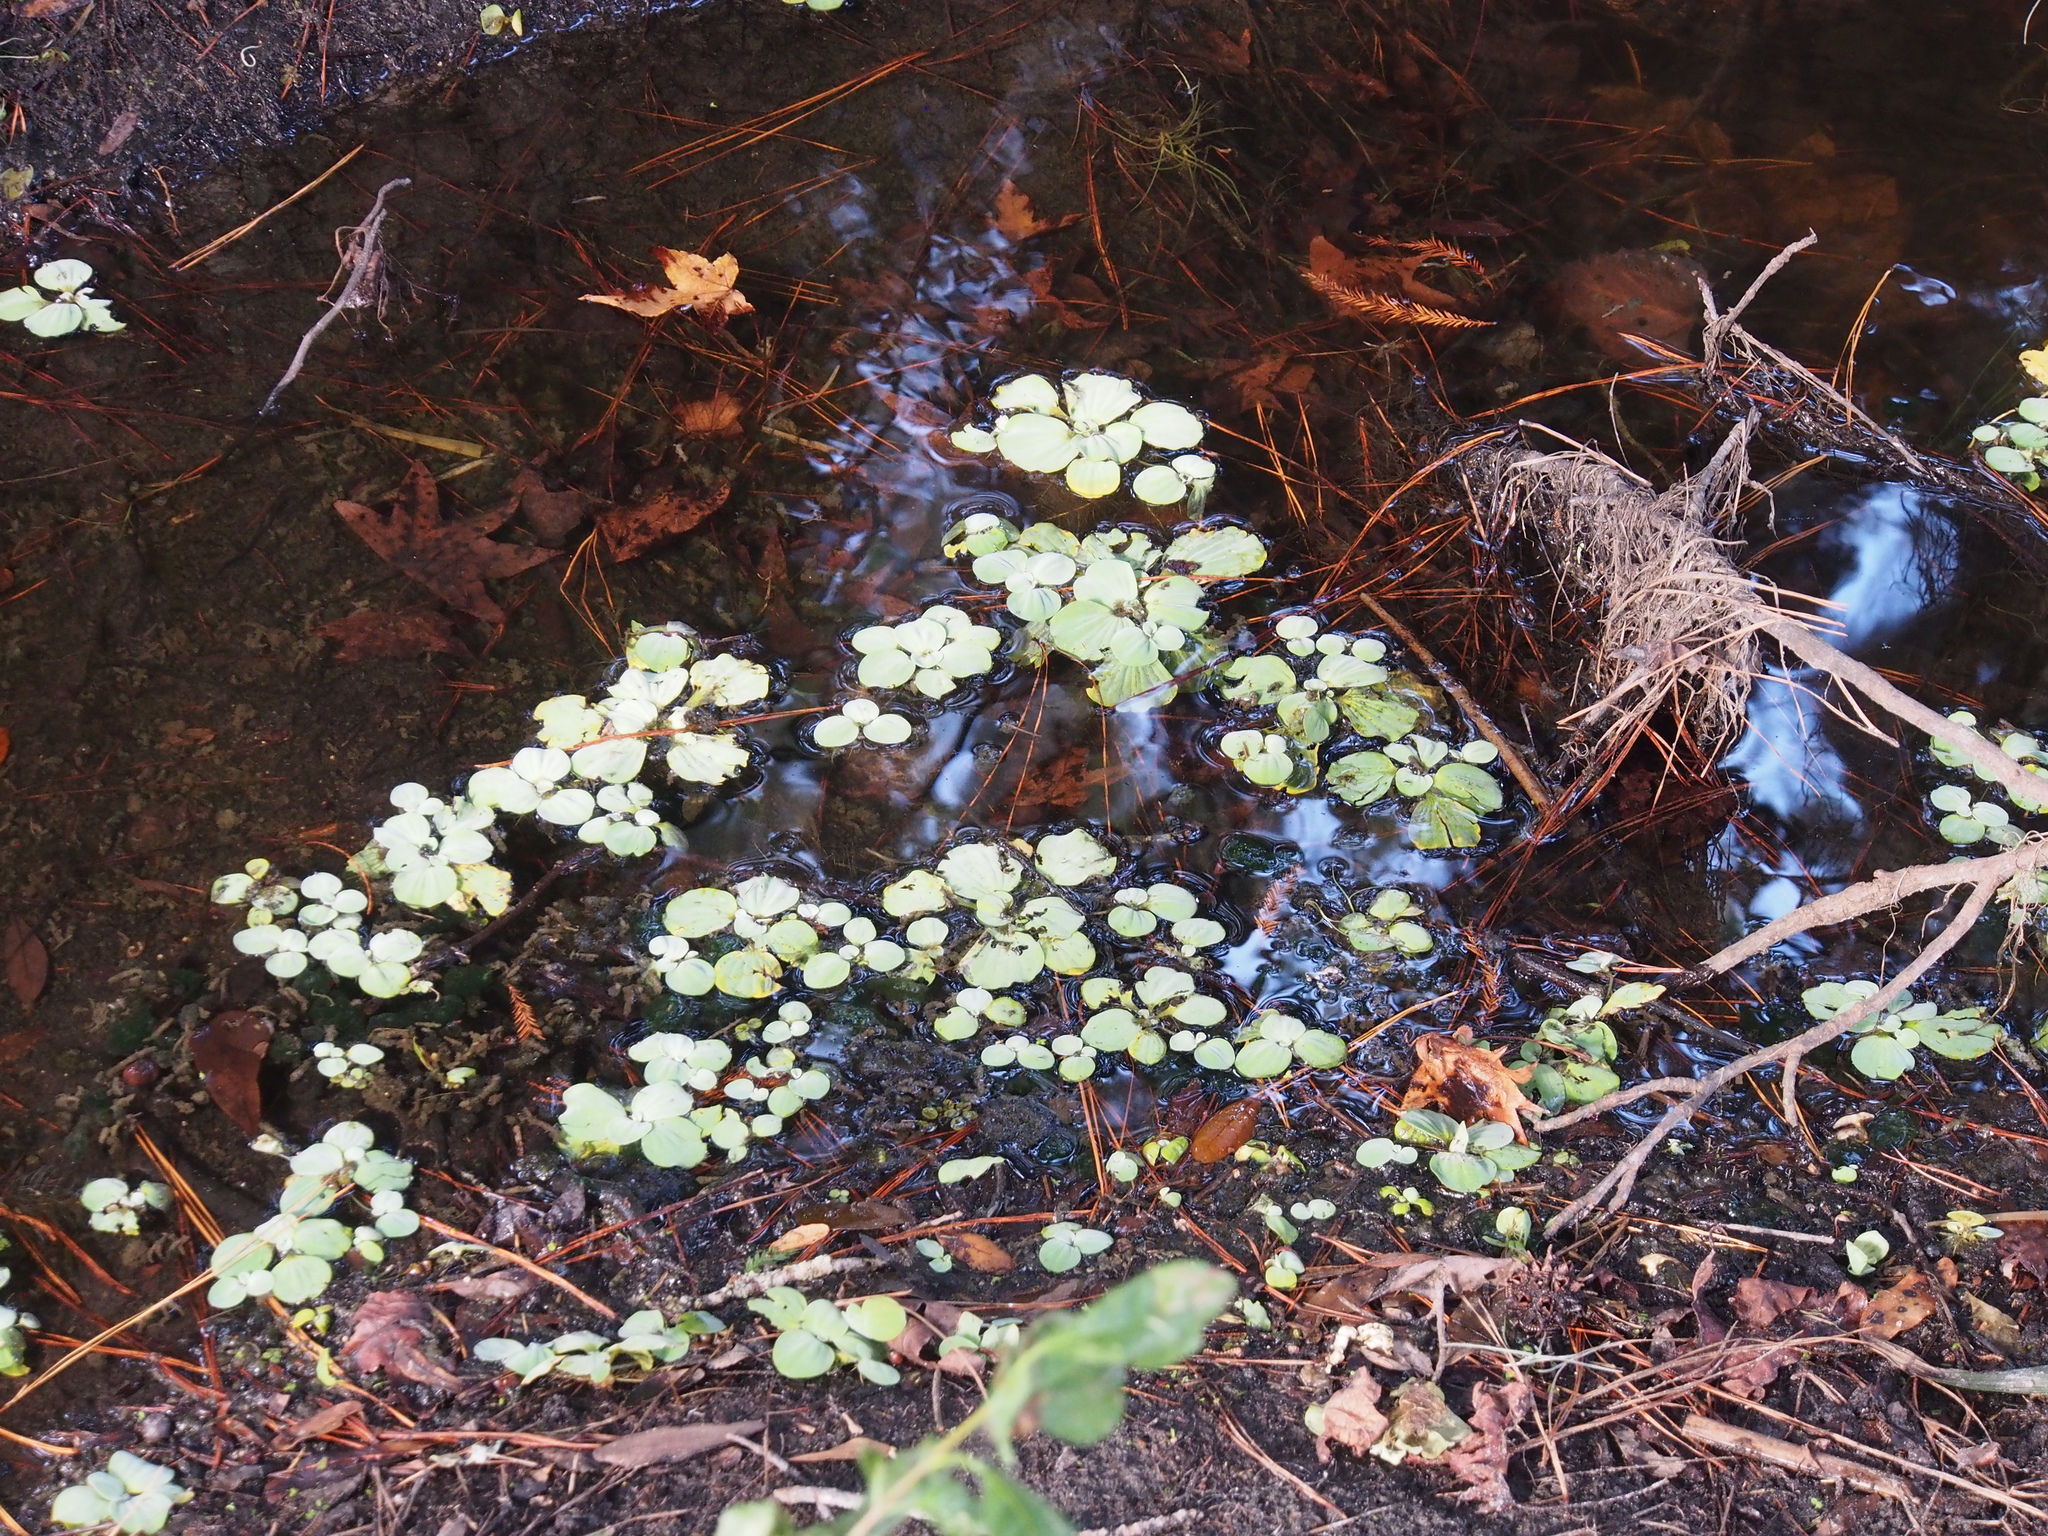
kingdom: Plantae
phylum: Tracheophyta
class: Liliopsida
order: Alismatales
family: Araceae
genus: Pistia
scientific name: Pistia stratiotes
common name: Water lettuce
